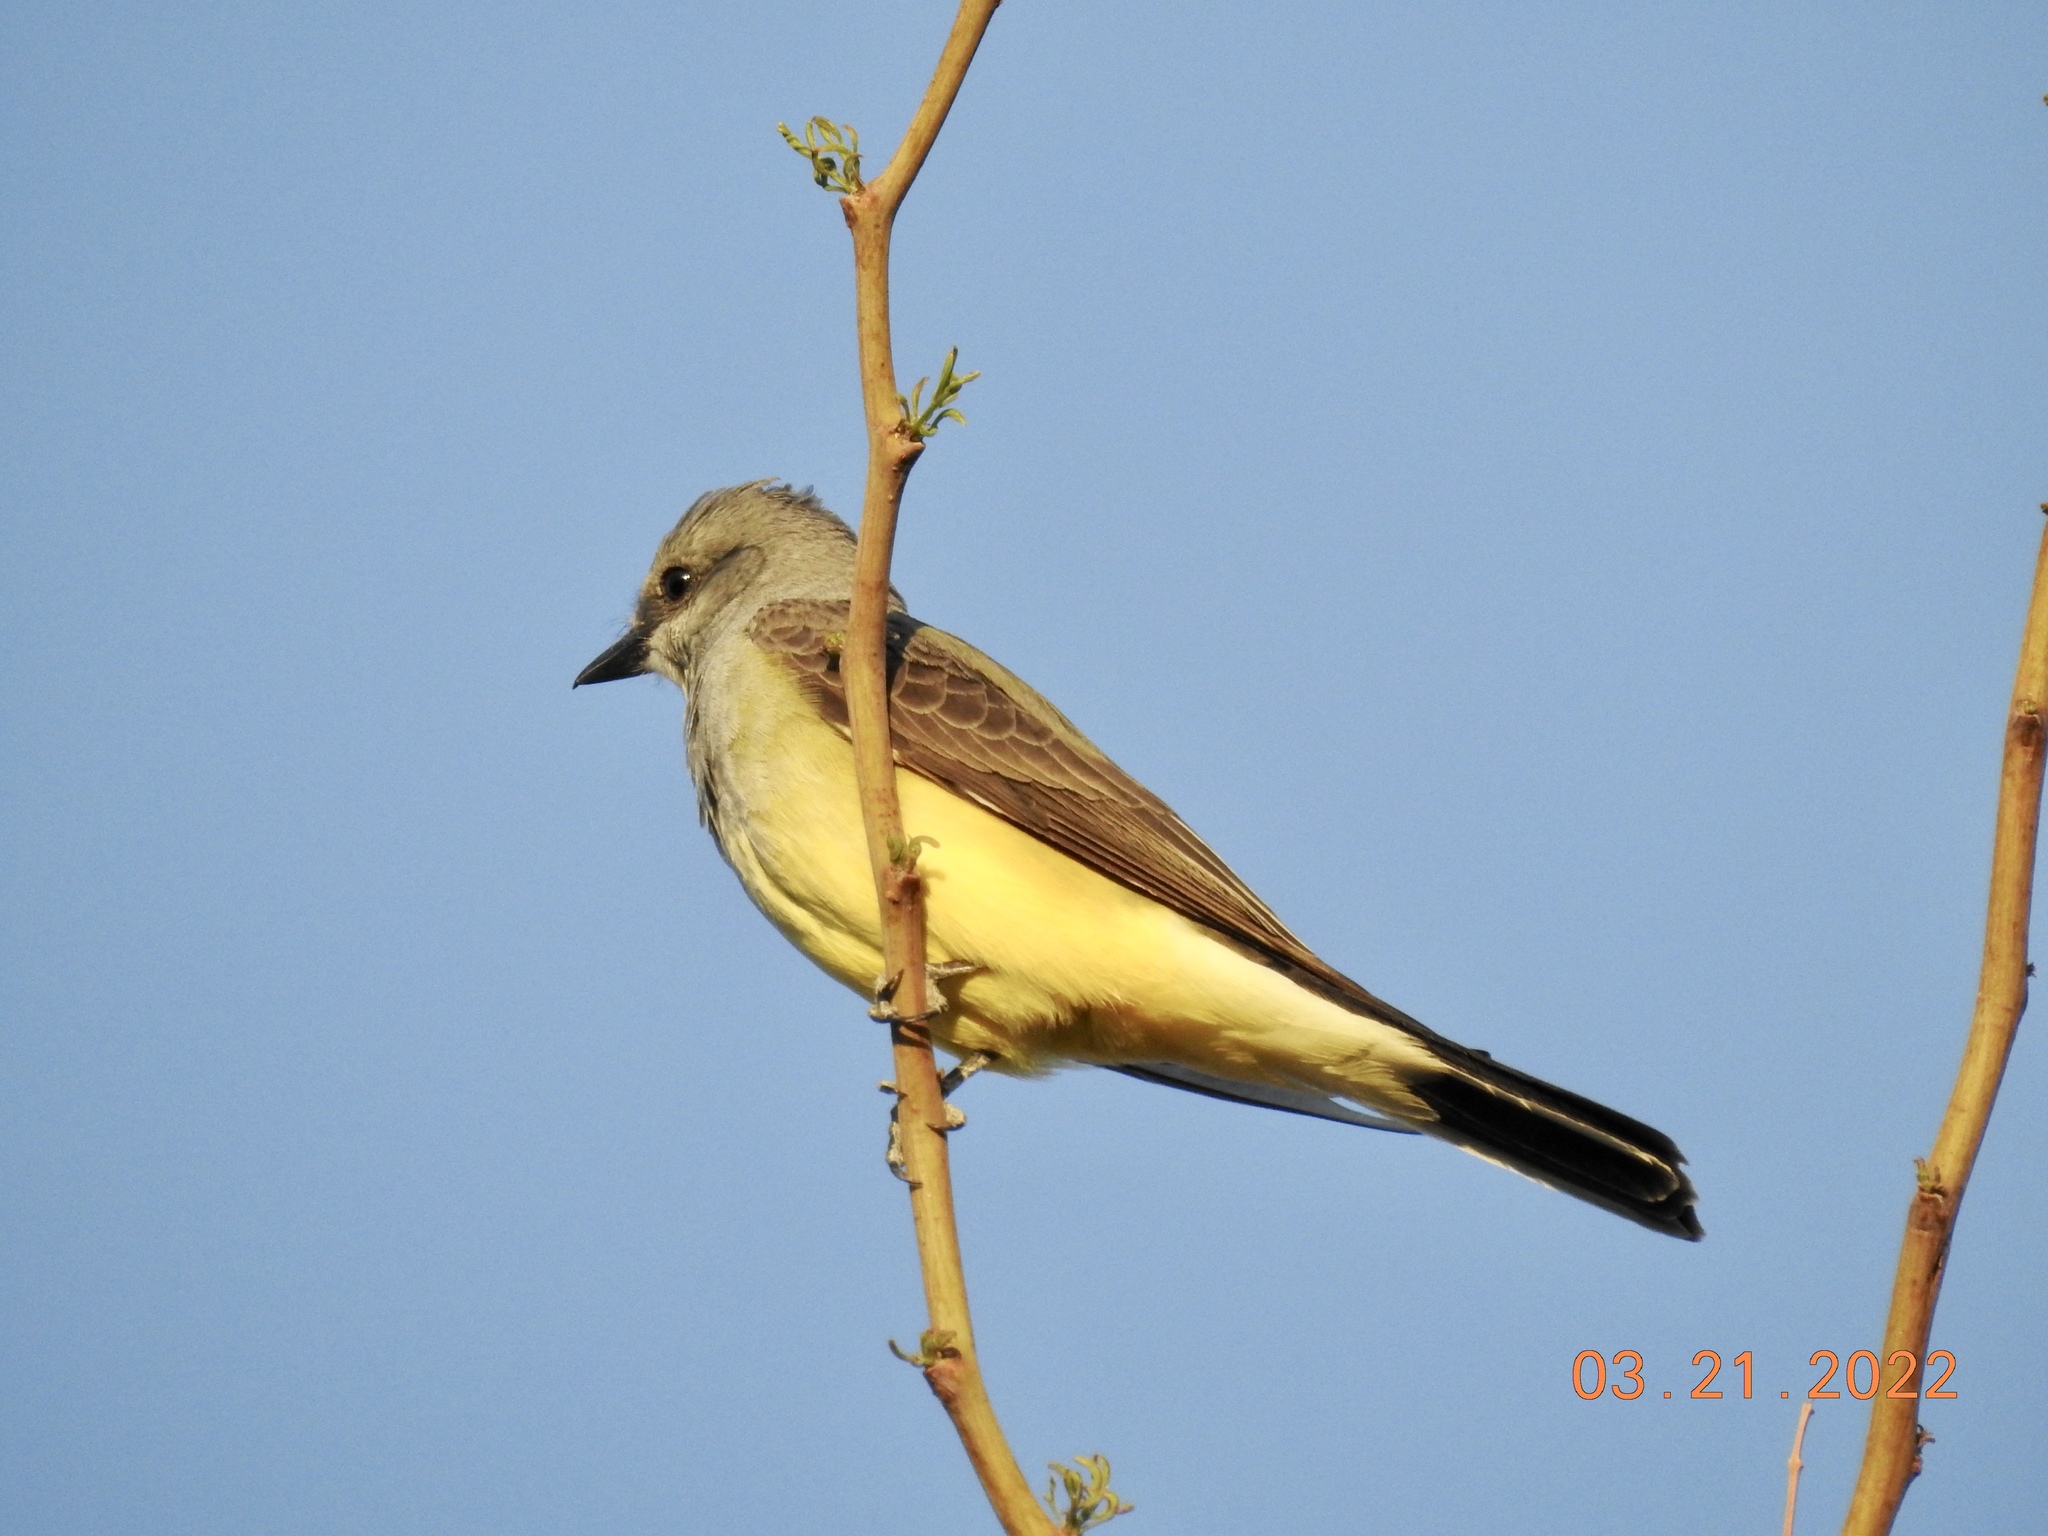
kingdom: Animalia
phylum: Chordata
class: Aves
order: Passeriformes
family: Tyrannidae
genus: Tyrannus
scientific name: Tyrannus verticalis
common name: Western kingbird
